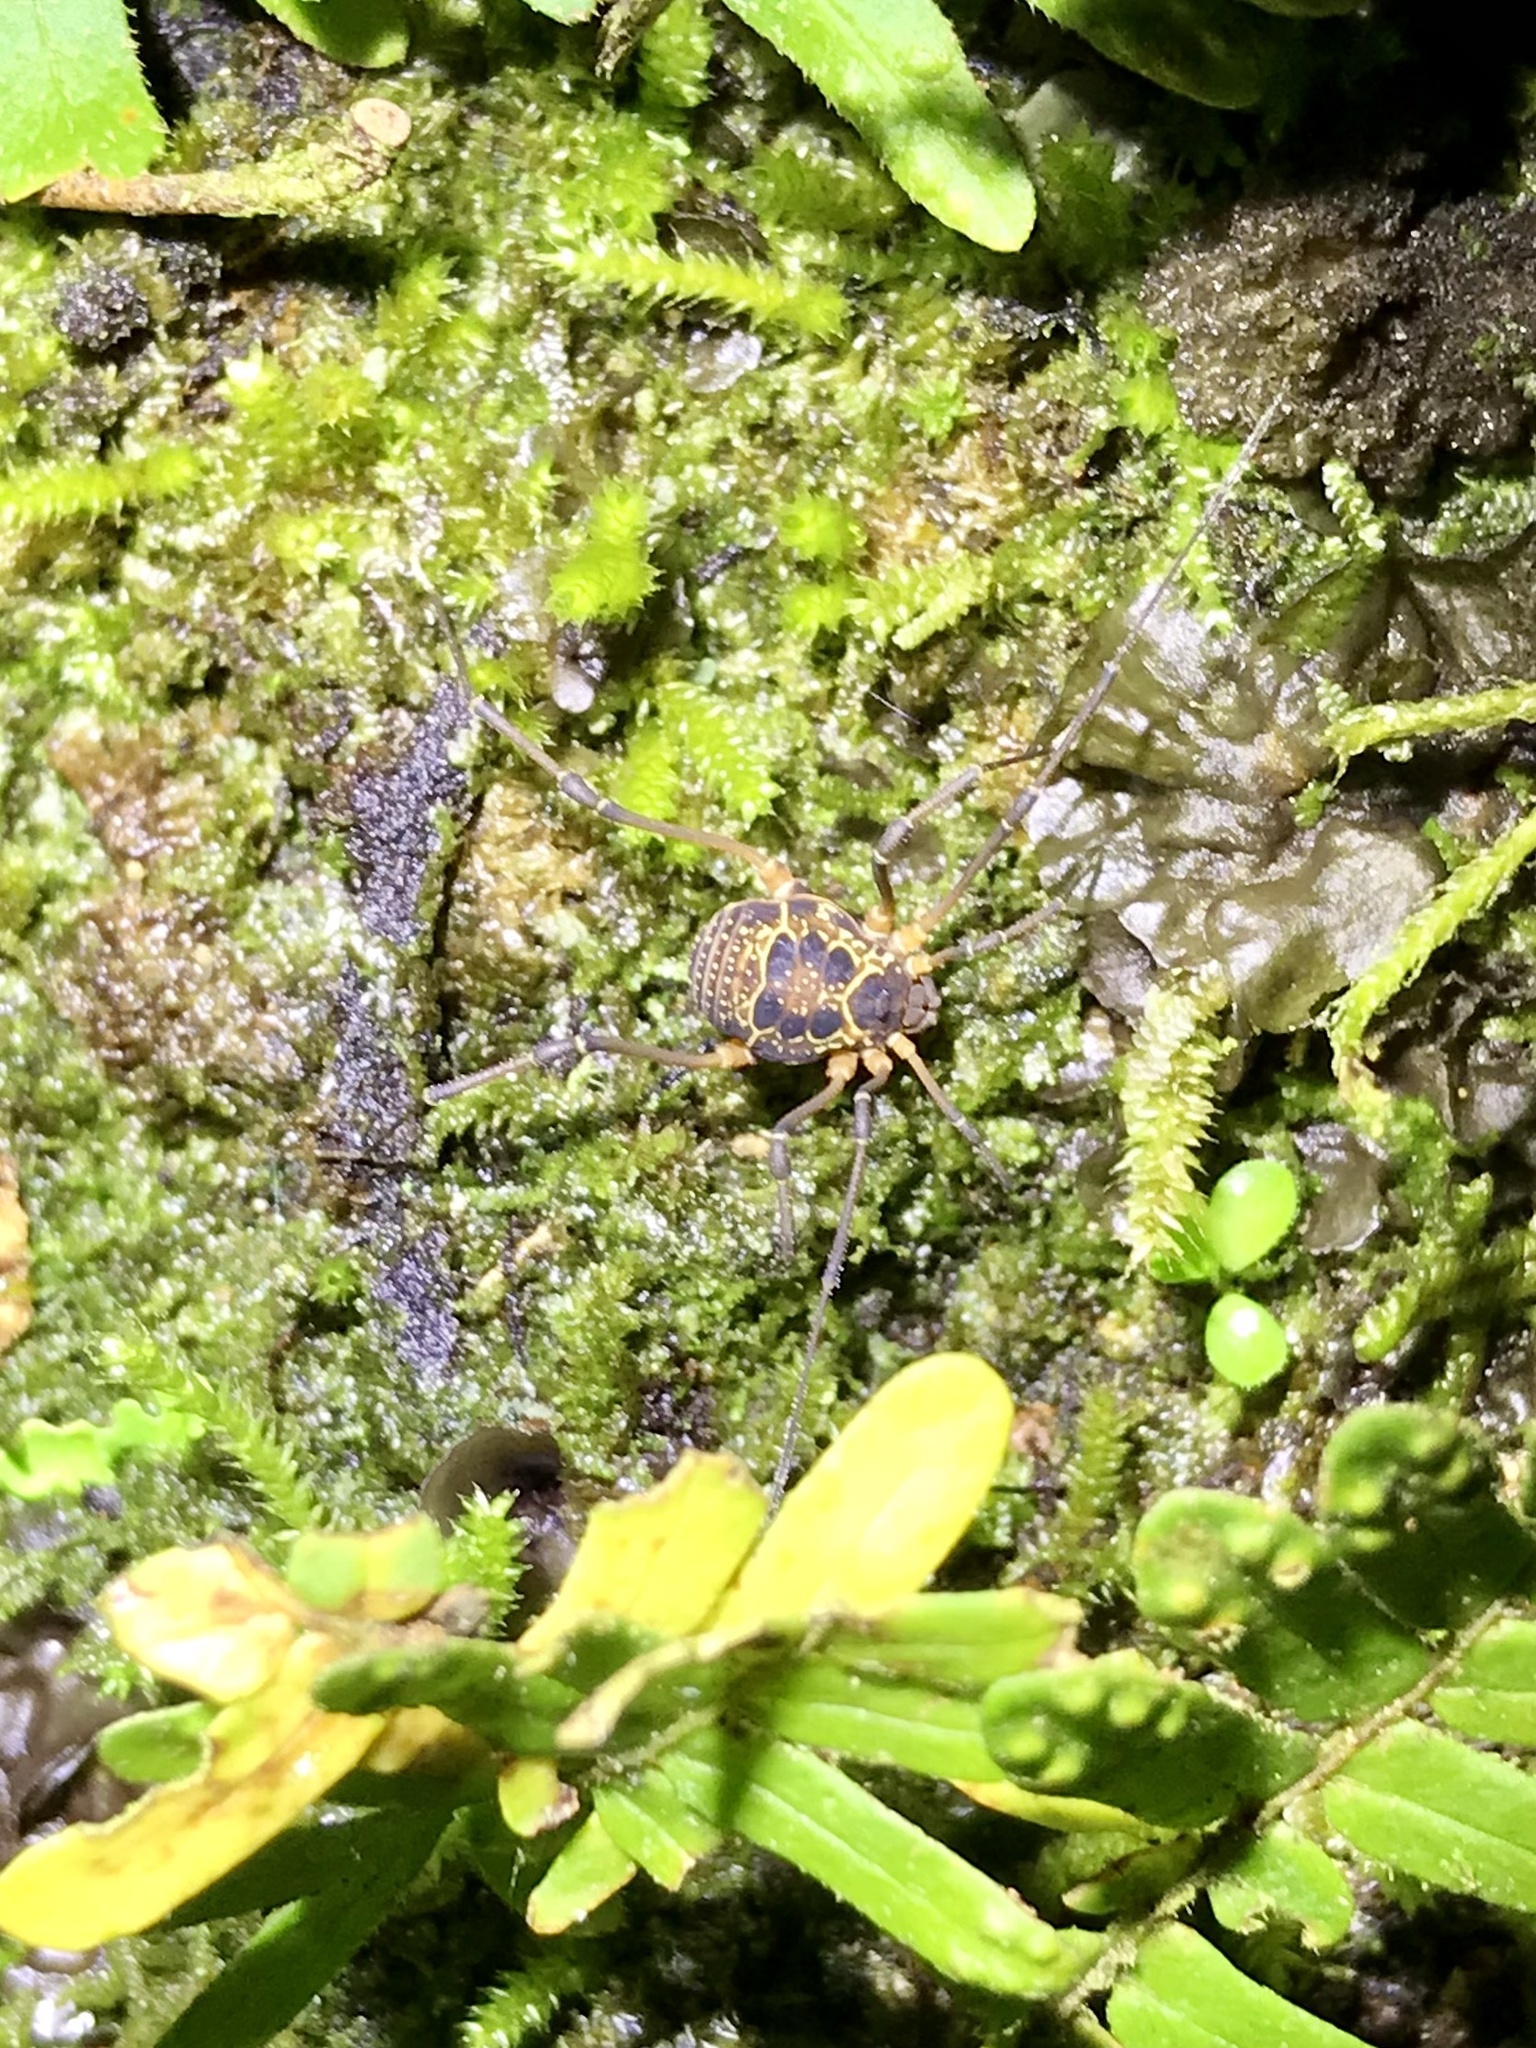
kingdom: Animalia
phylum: Arthropoda
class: Arachnida
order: Opiliones
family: Cosmetidae
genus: Eucynortula
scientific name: Eucynortula albipunctata
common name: Harvestmen
